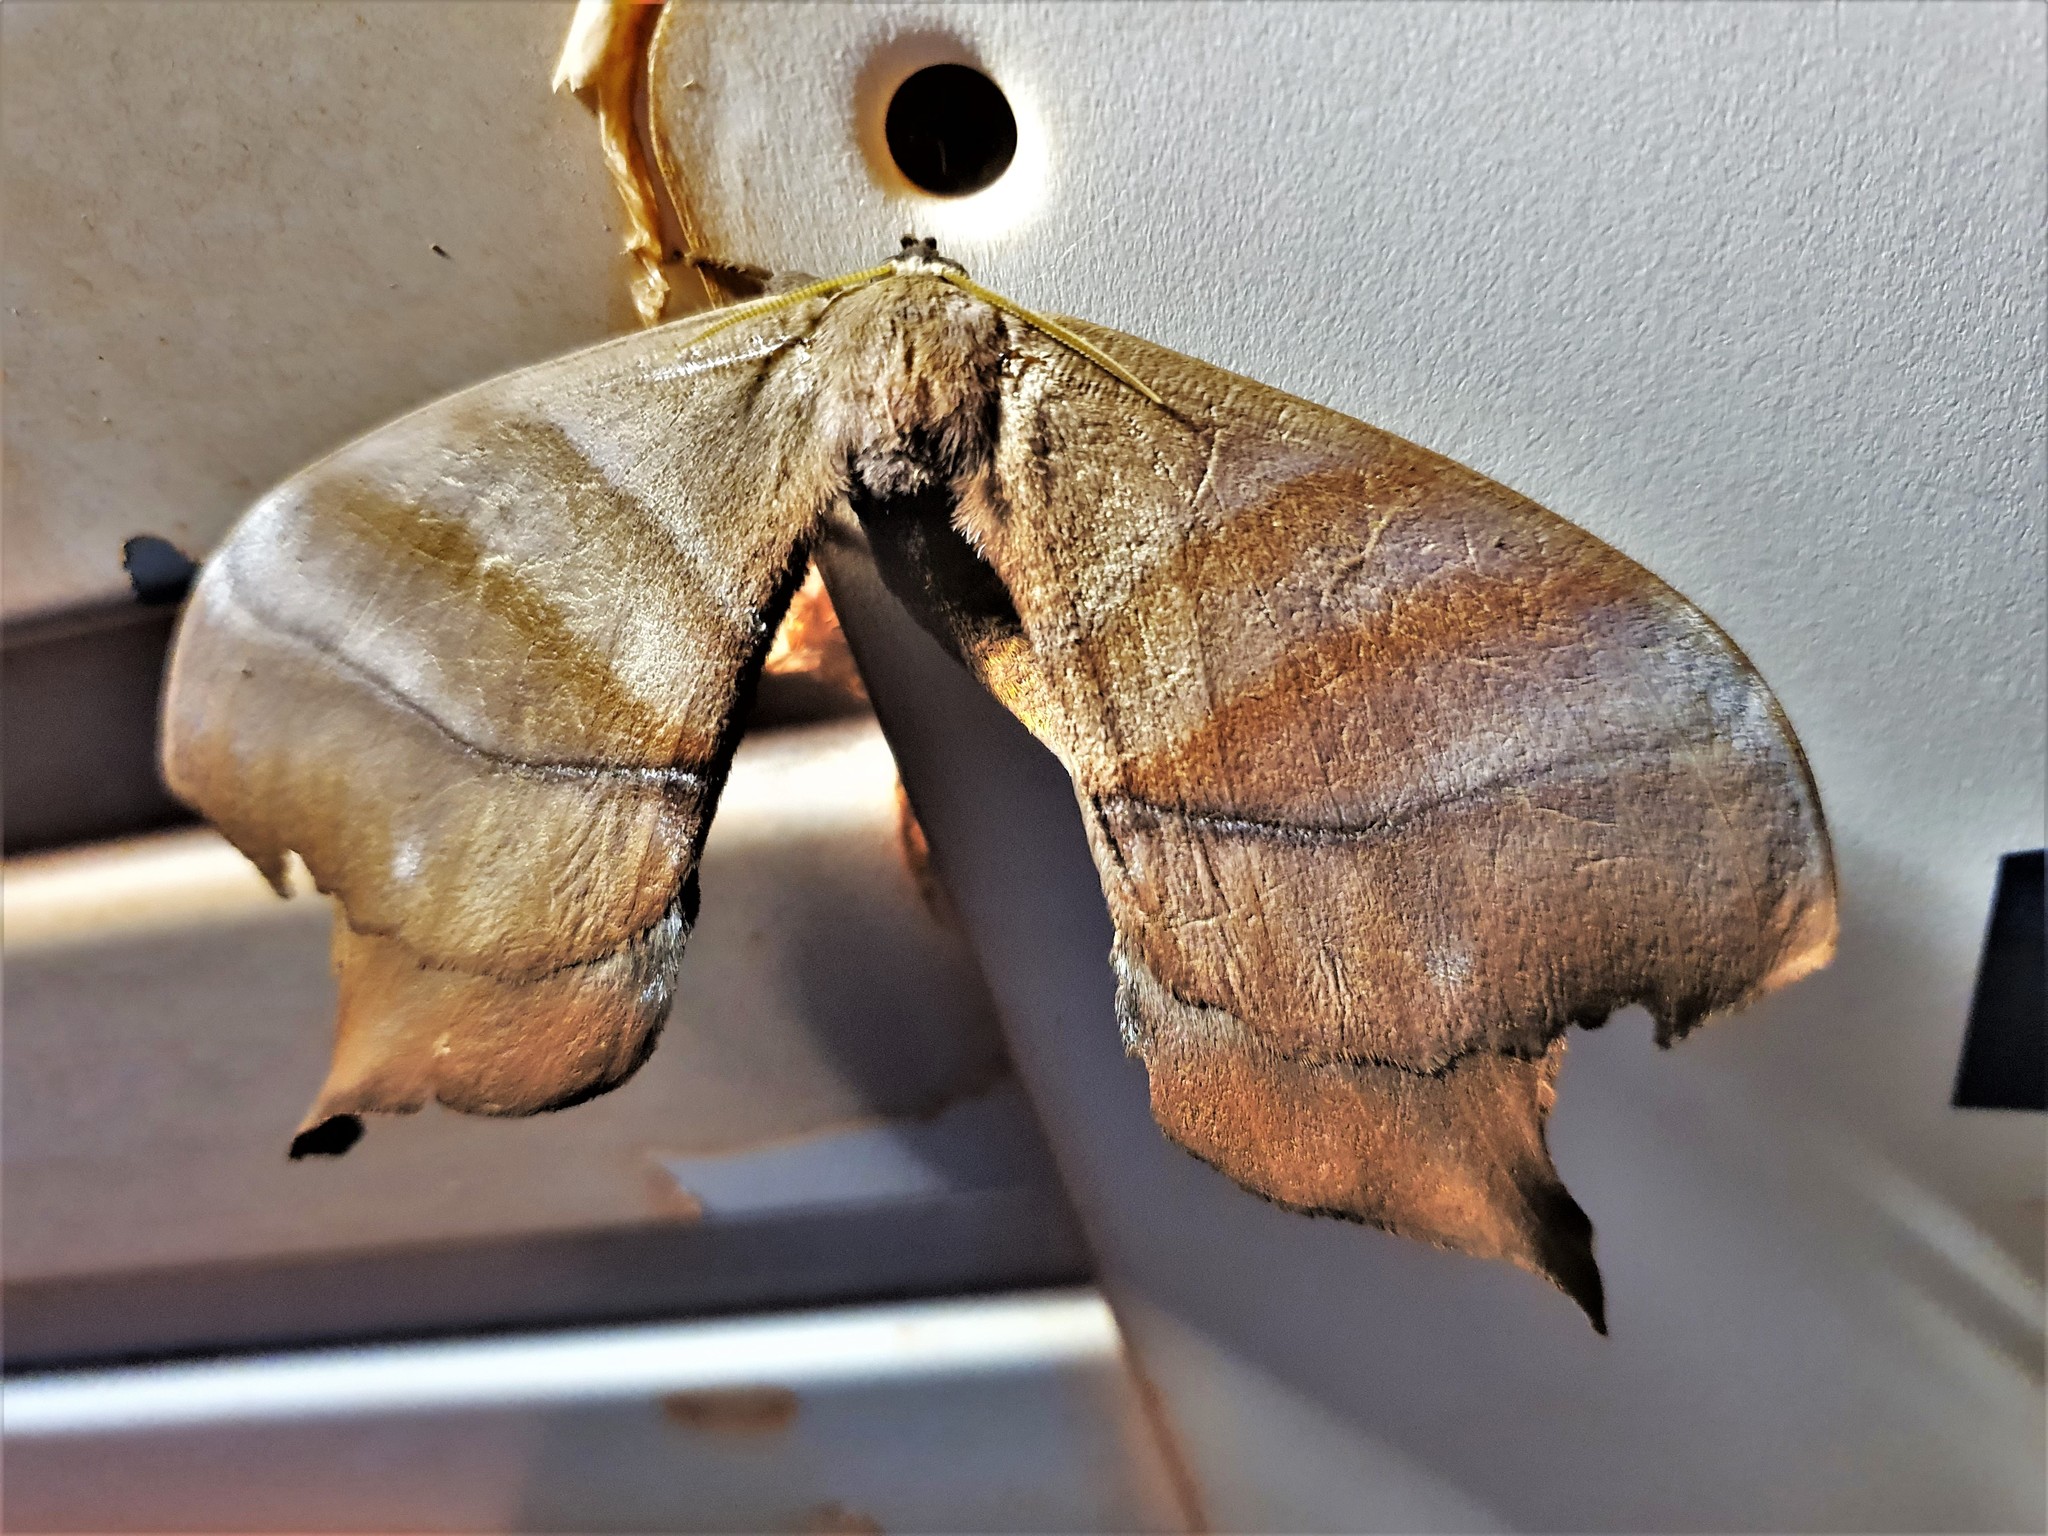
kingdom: Animalia
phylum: Arthropoda
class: Insecta
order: Lepidoptera
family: Saturniidae
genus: Paradaemonia
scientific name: Paradaemonia platydesmia
